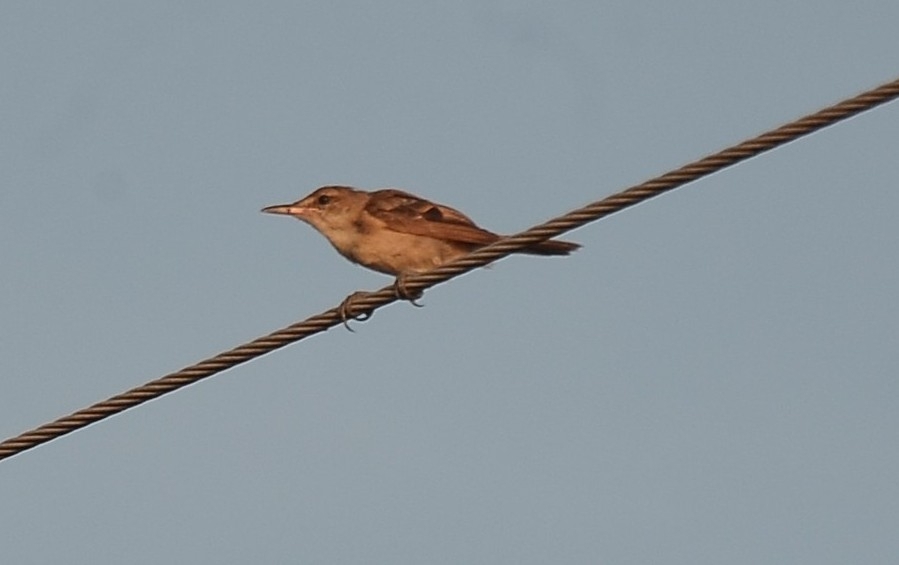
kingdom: Animalia
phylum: Chordata
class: Aves
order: Passeriformes
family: Acrocephalidae
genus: Acrocephalus
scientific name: Acrocephalus stentoreus
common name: Clamorous reed warbler
